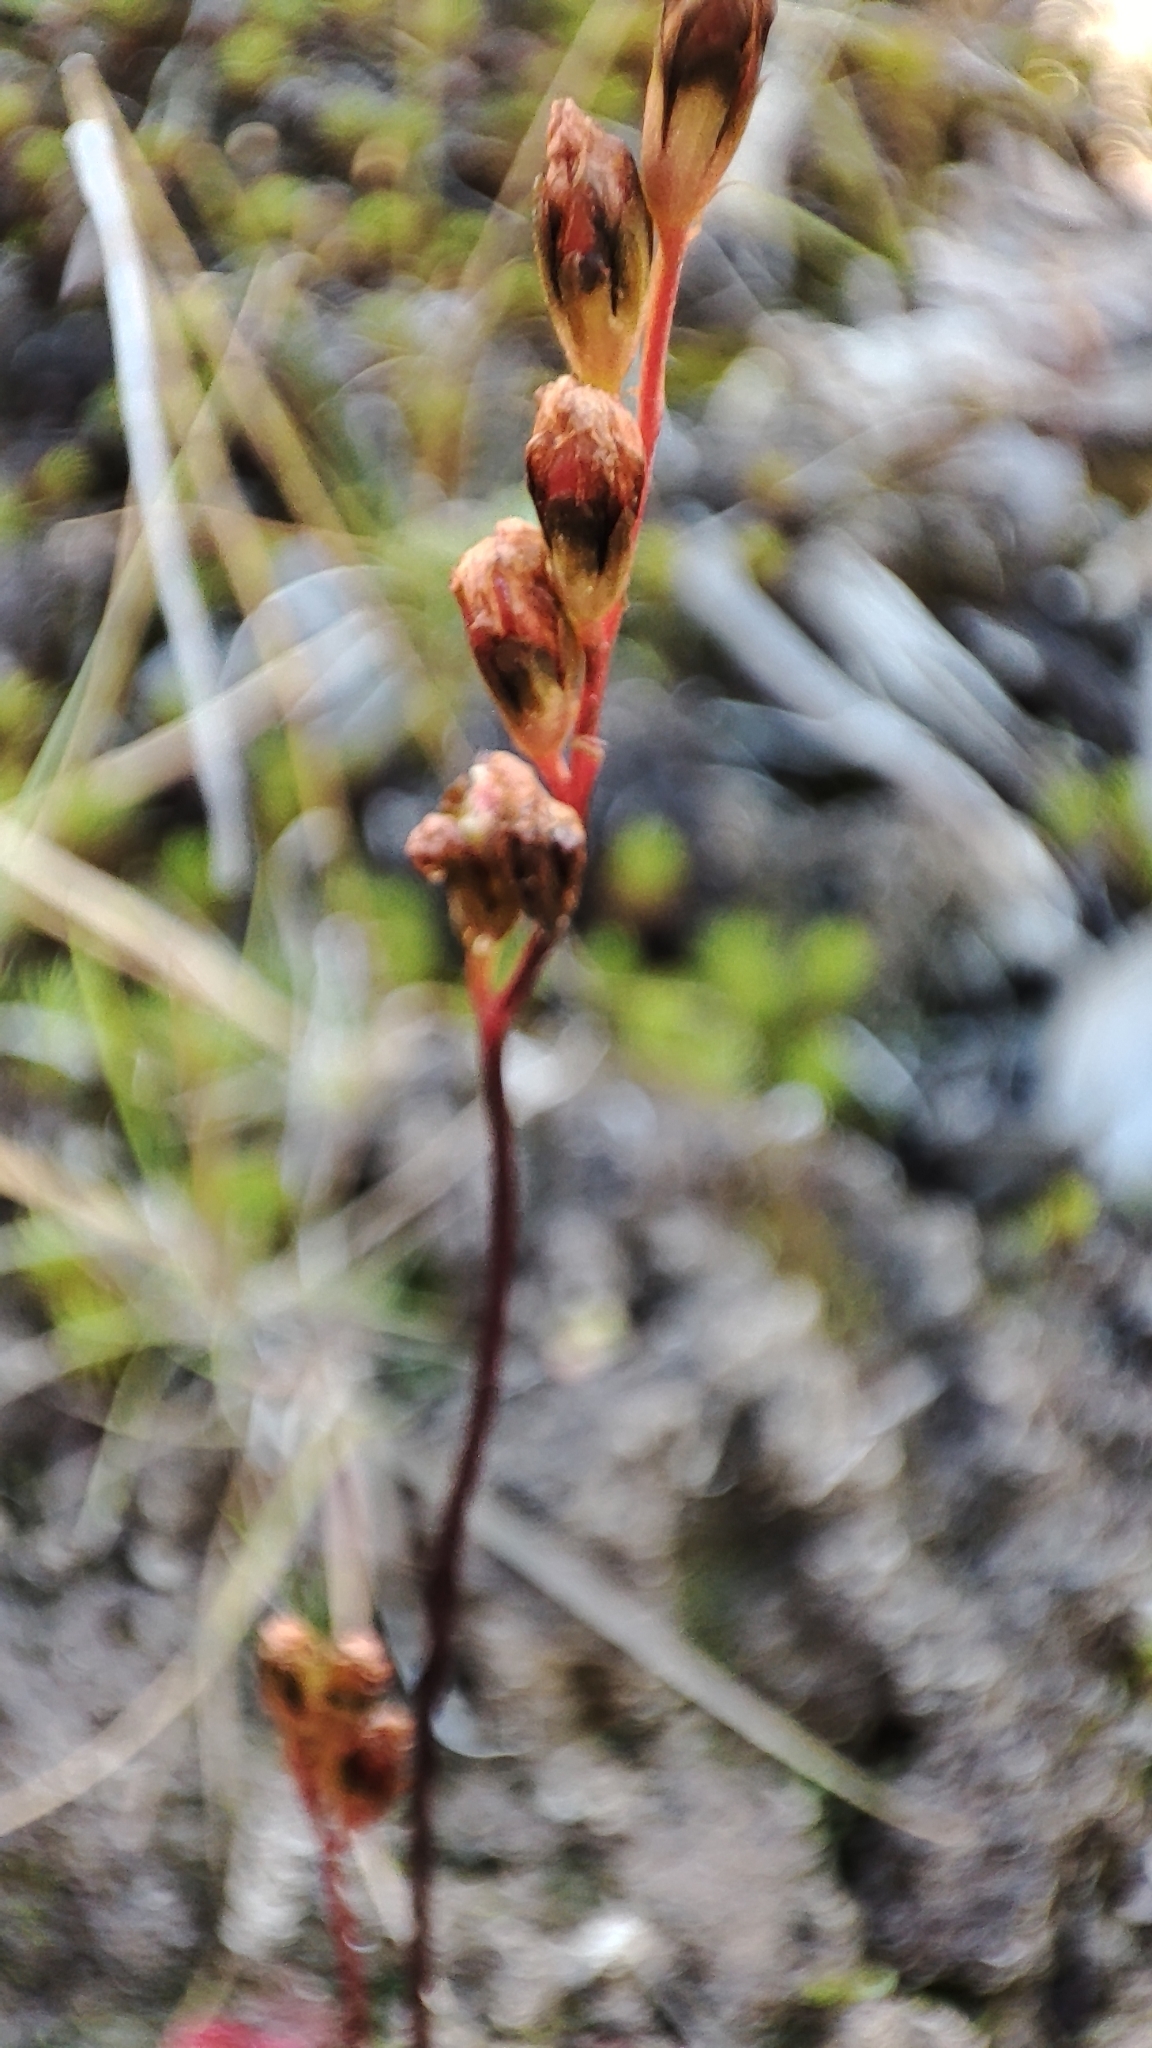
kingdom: Plantae
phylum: Tracheophyta
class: Magnoliopsida
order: Caryophyllales
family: Droseraceae
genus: Drosera
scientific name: Drosera rotundifolia
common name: Round-leaved sundew
